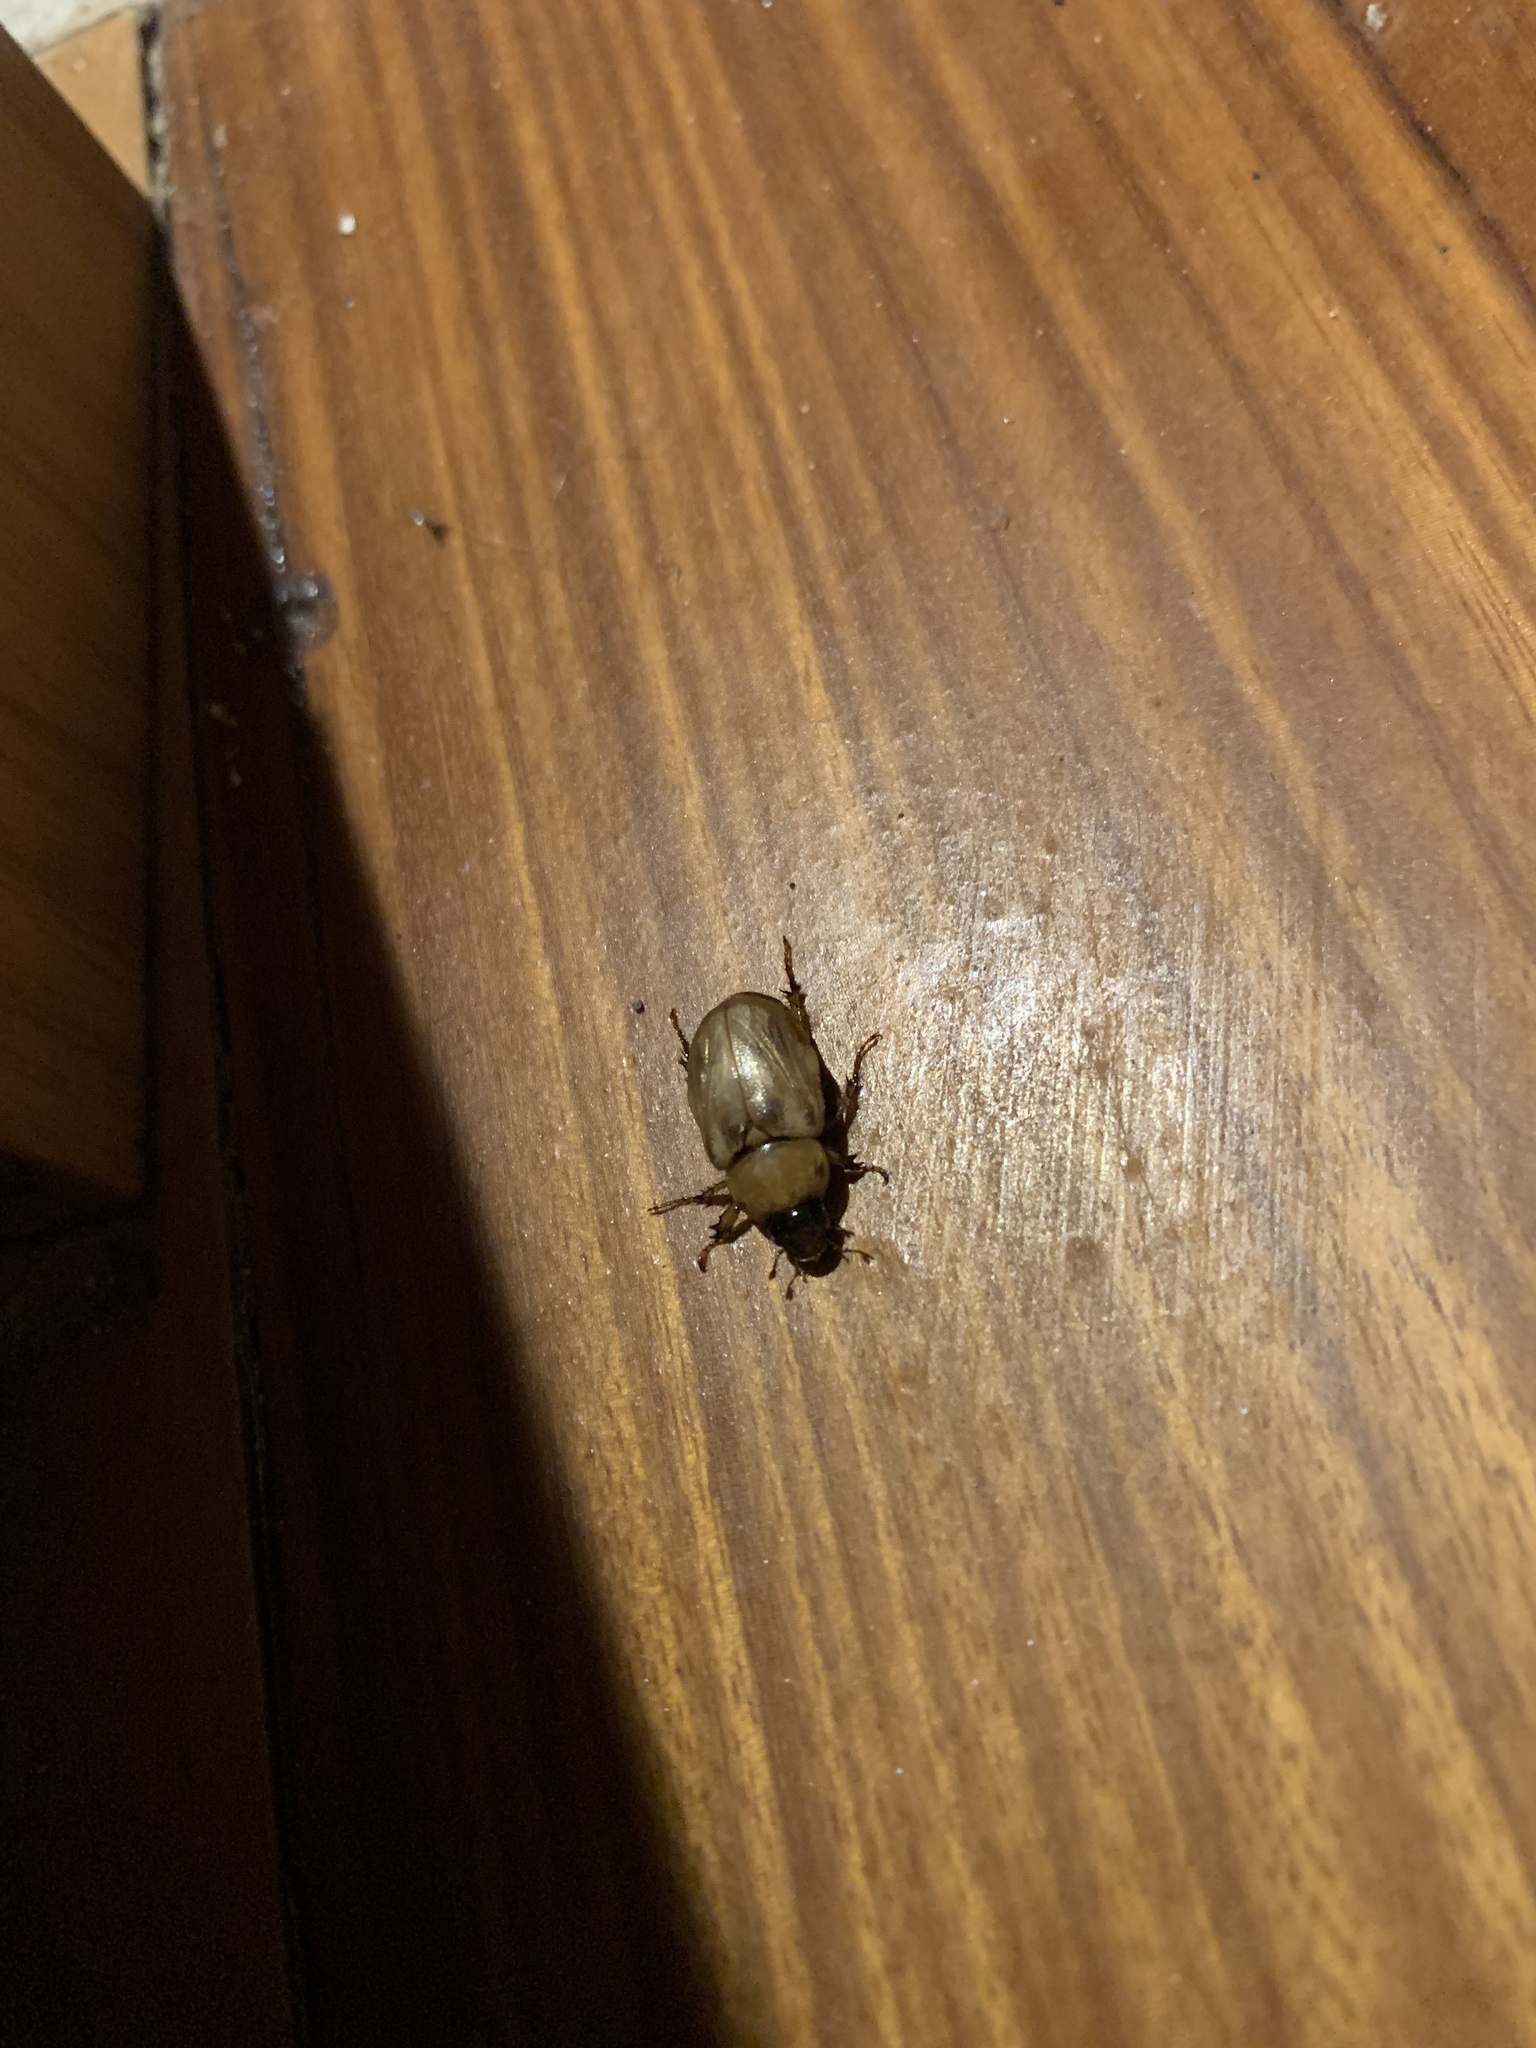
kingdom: Animalia
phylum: Arthropoda
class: Insecta
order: Coleoptera
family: Scarabaeidae
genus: Cyclocephala
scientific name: Cyclocephala lunulata
